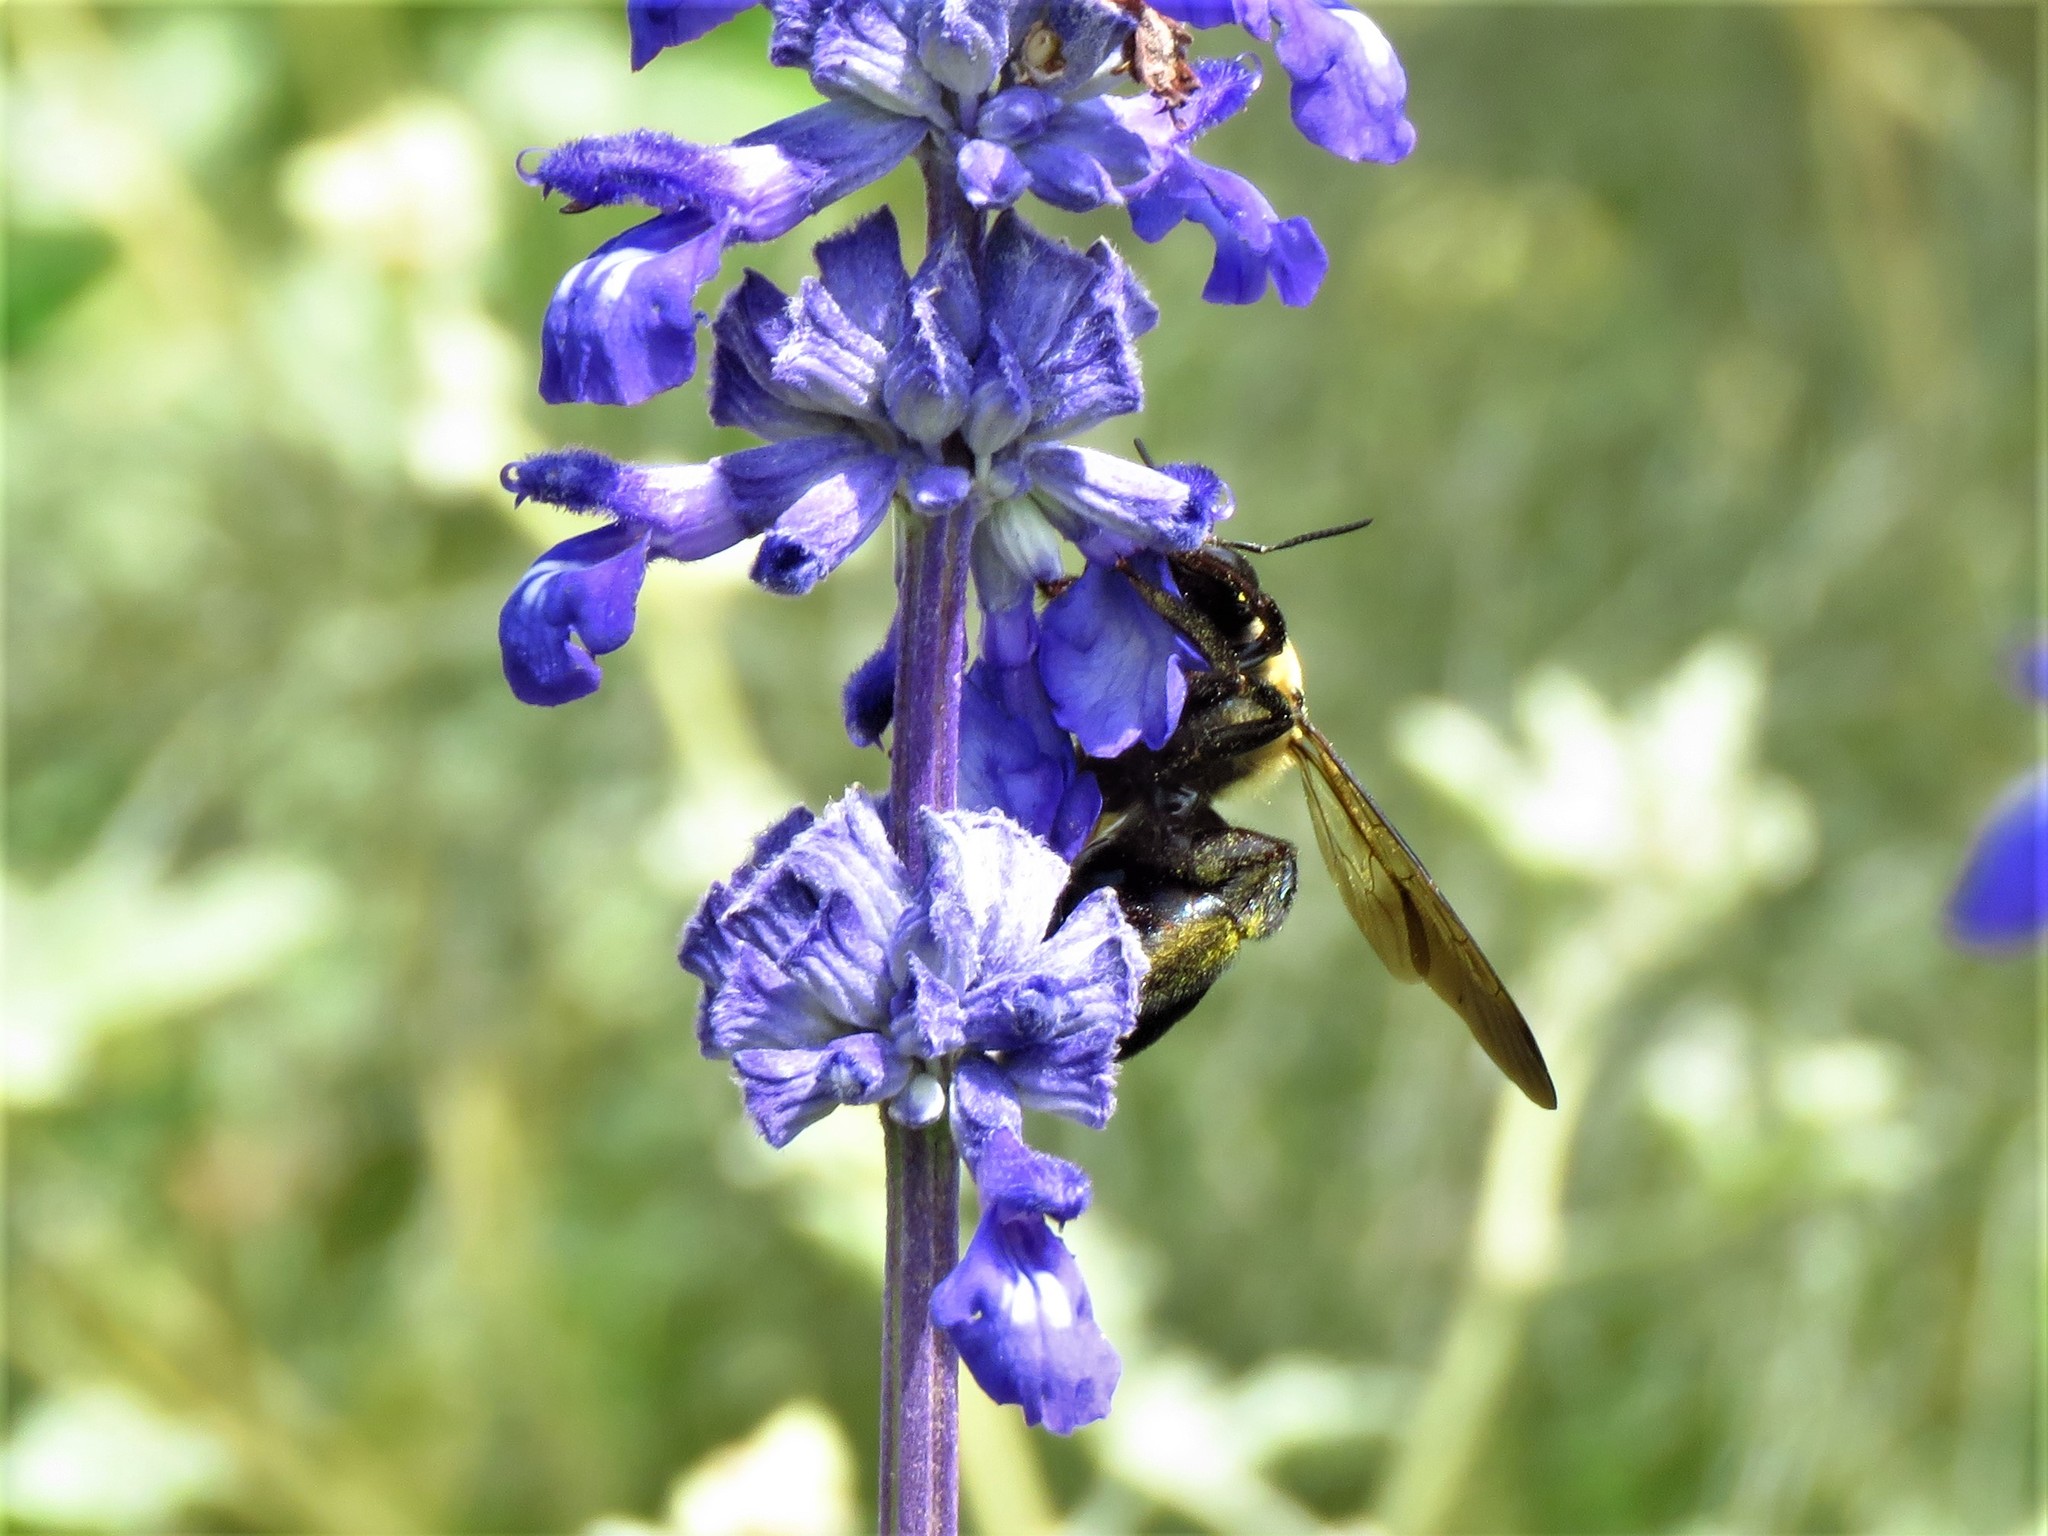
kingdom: Animalia
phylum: Arthropoda
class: Insecta
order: Hymenoptera
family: Apidae
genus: Xylocopa
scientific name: Xylocopa virginica
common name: Carpenter bee
